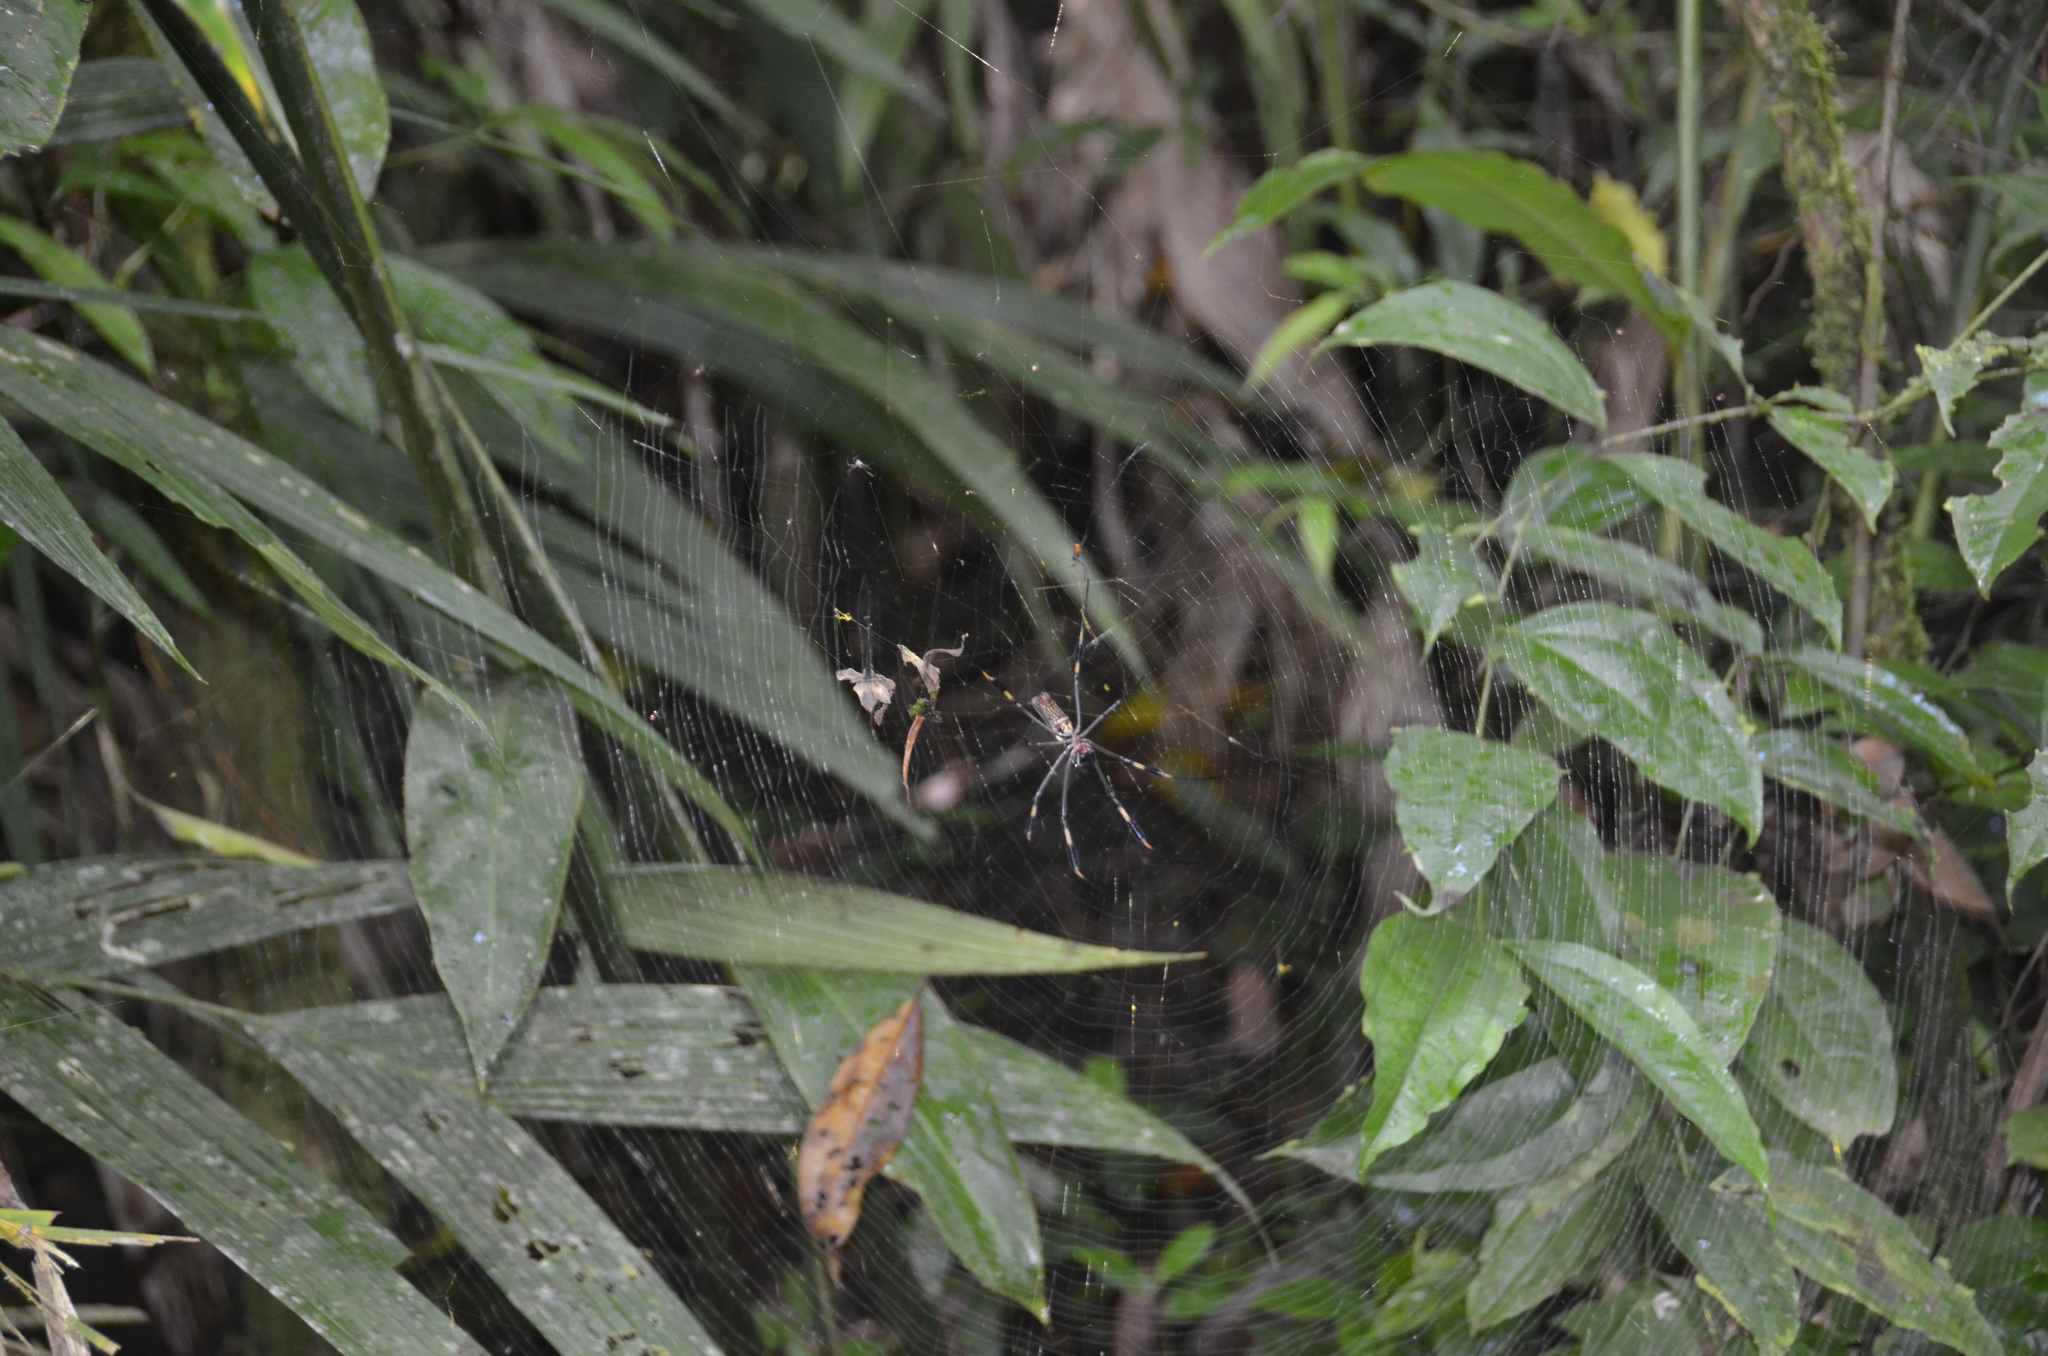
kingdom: Animalia
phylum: Arthropoda
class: Arachnida
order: Araneae
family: Araneidae
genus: Trichonephila
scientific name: Trichonephila clavipes
